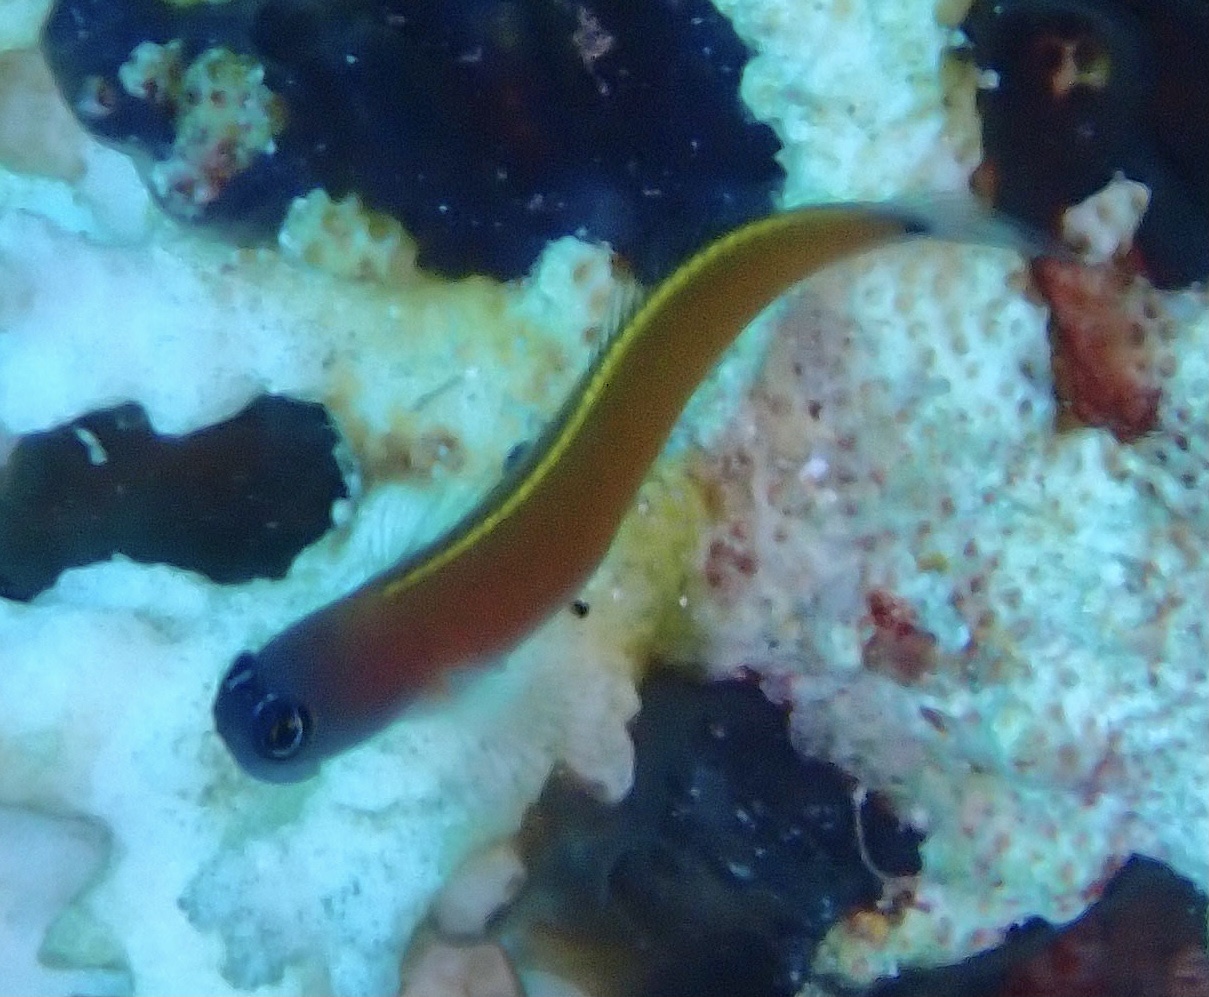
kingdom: Animalia
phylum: Chordata
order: Perciformes
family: Blenniidae
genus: Ecsenius
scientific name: Ecsenius aroni
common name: Aron's blenny
